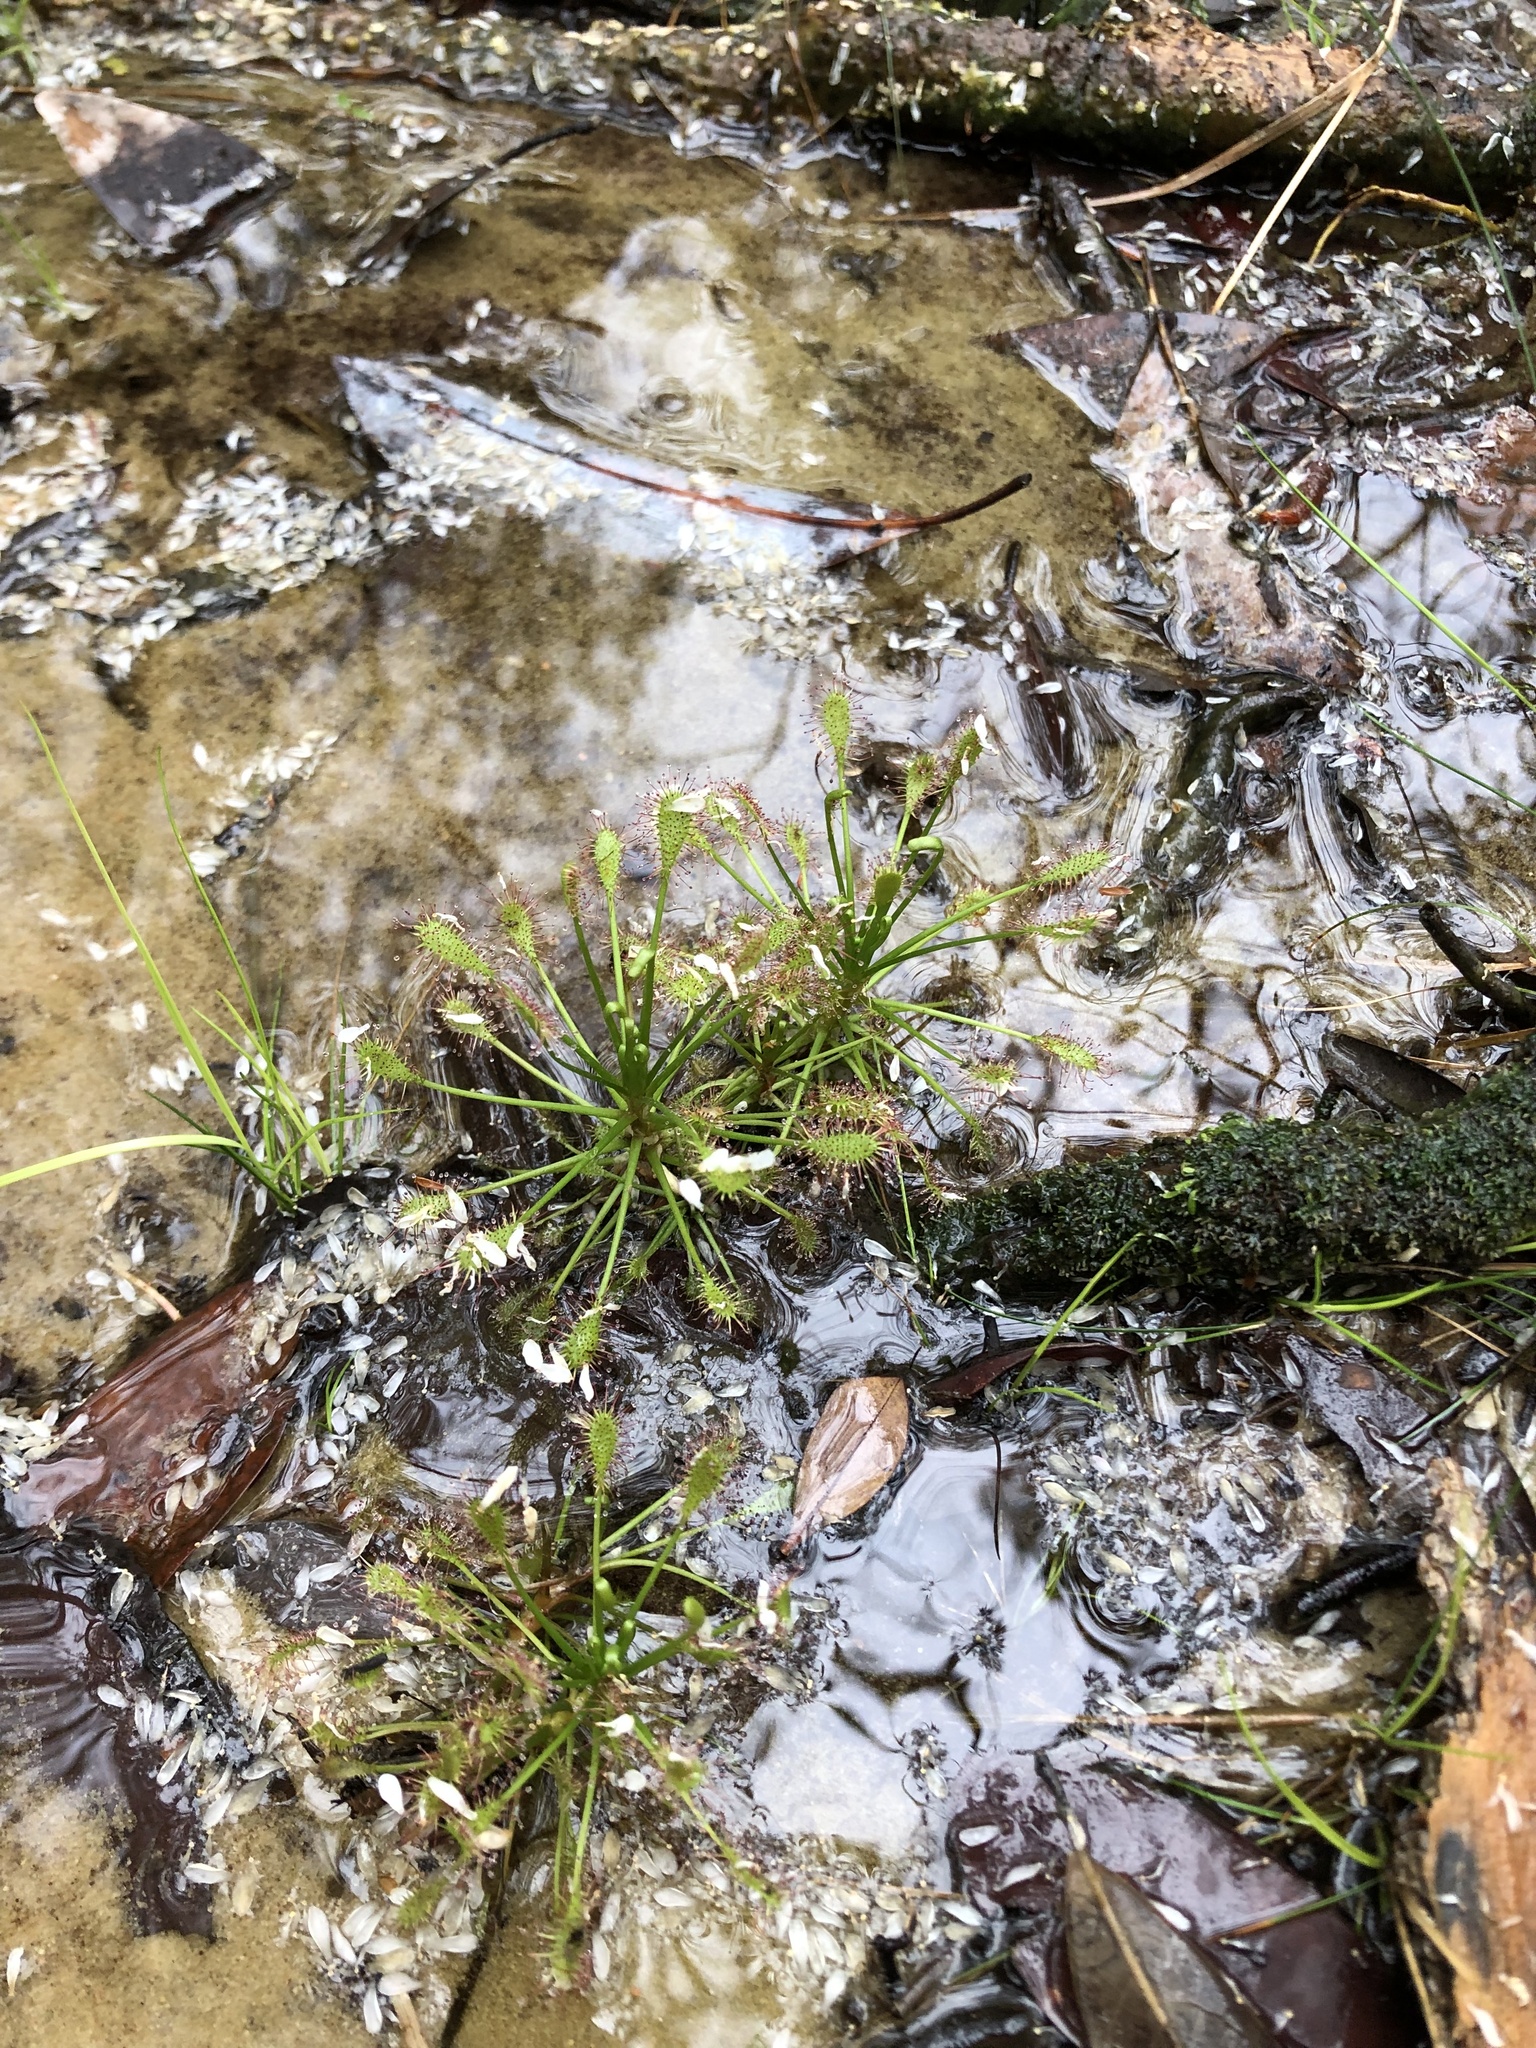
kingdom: Plantae
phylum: Tracheophyta
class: Magnoliopsida
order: Caryophyllales
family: Droseraceae
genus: Drosera
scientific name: Drosera intermedia
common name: Oblong-leaved sundew
